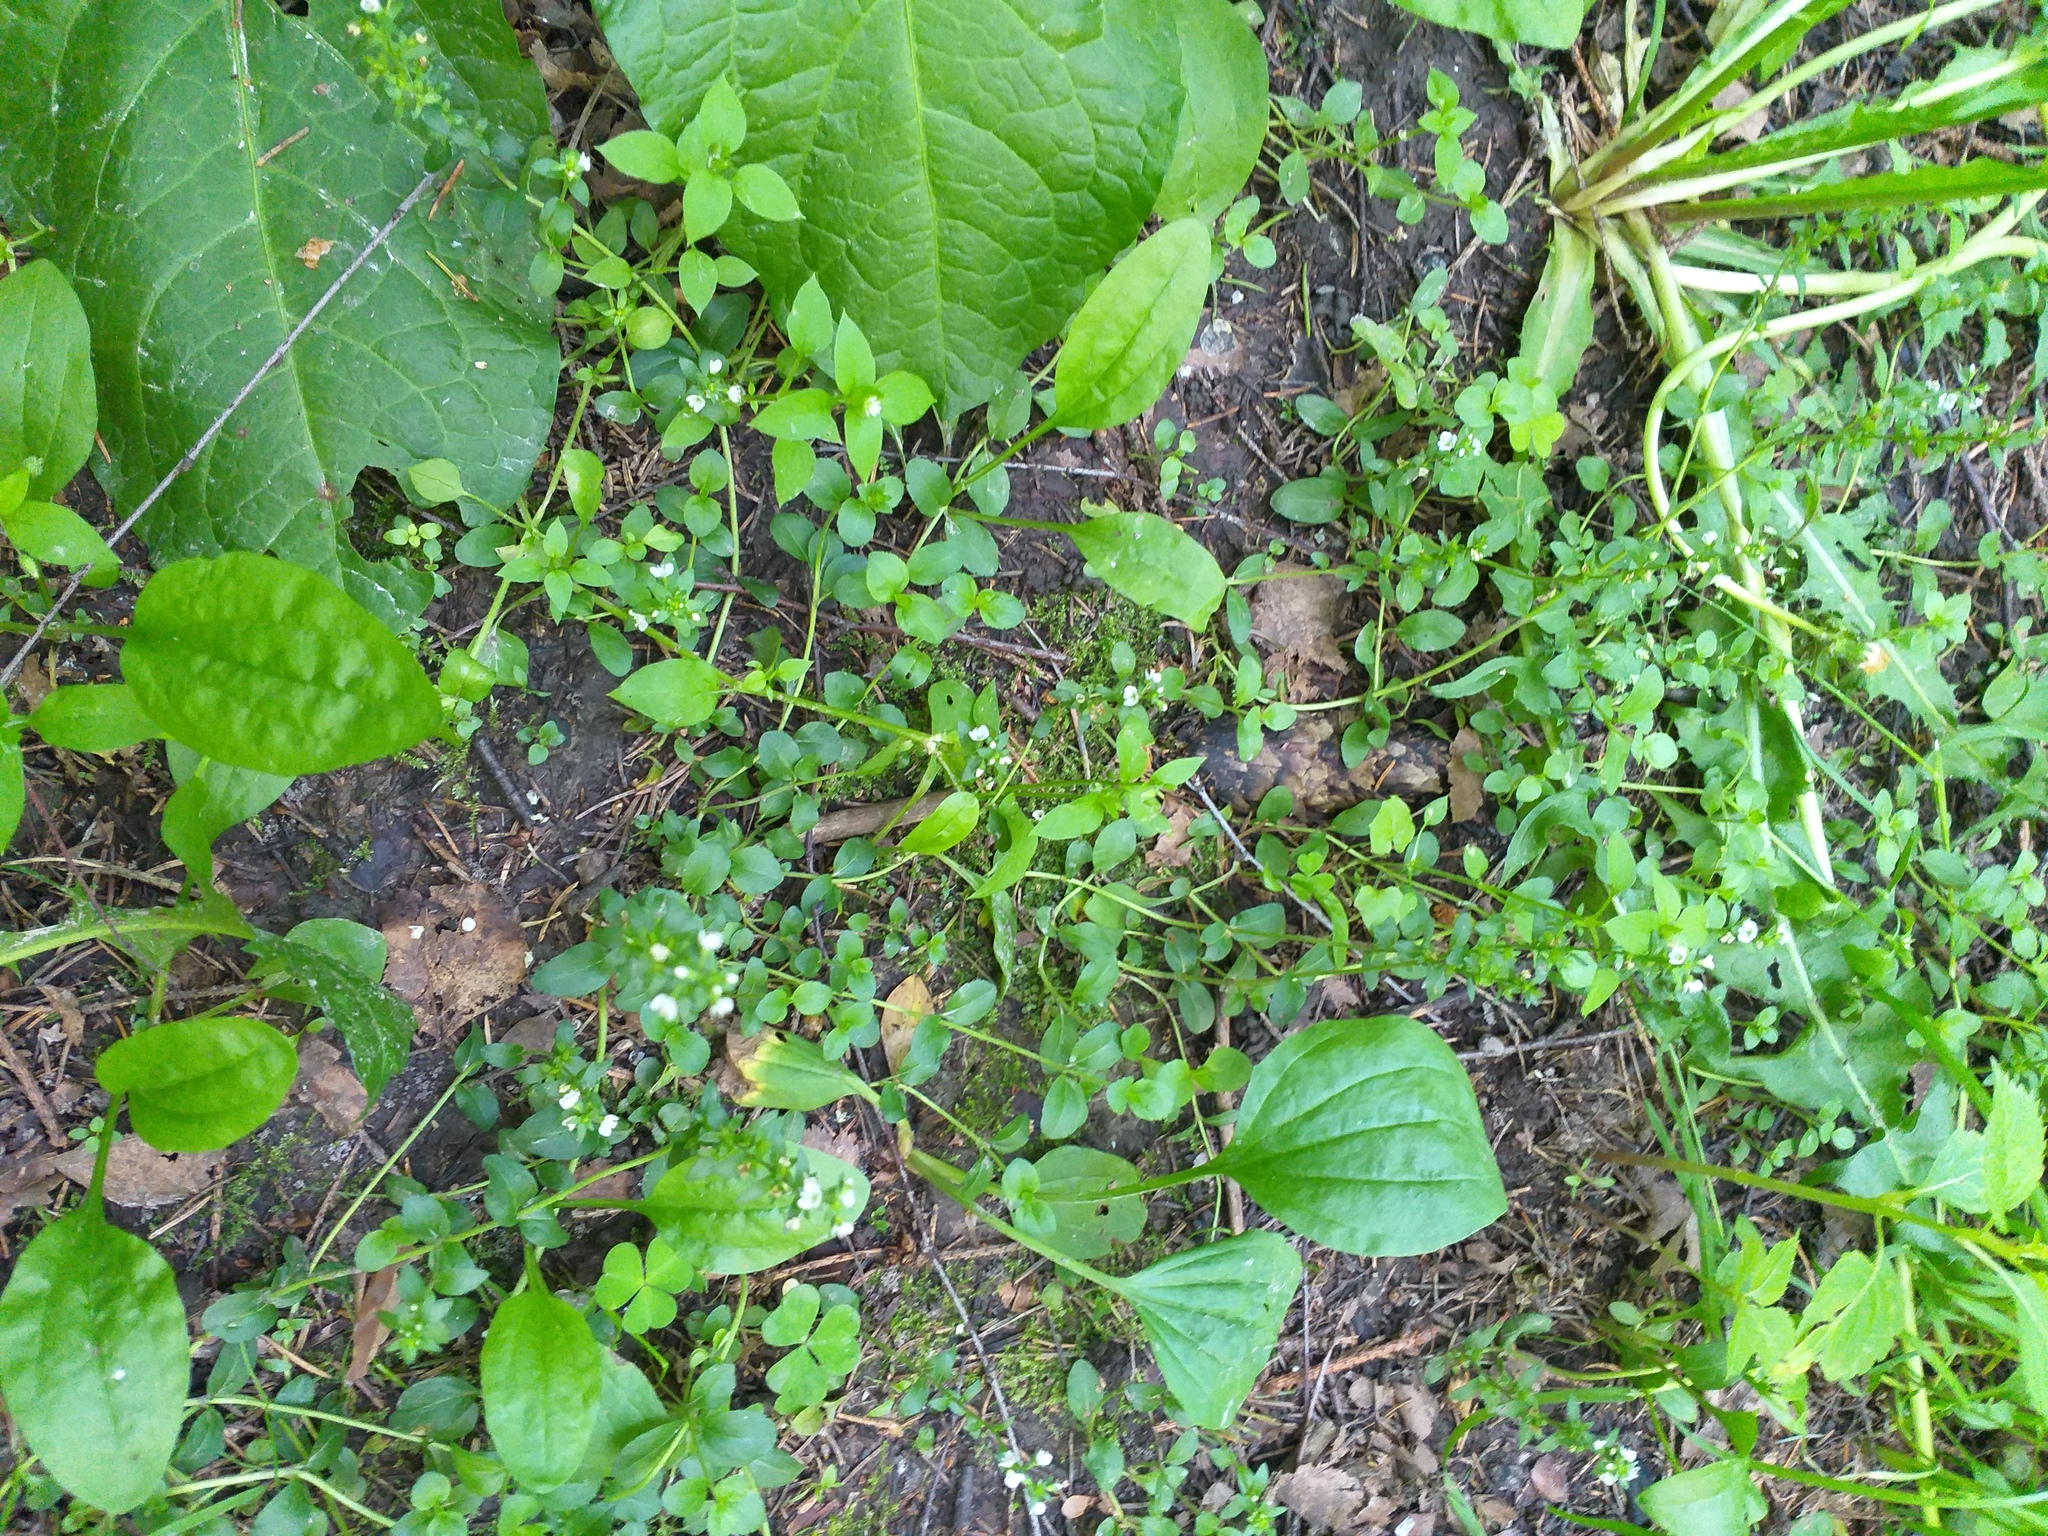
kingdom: Plantae
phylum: Tracheophyta
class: Magnoliopsida
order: Lamiales
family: Plantaginaceae
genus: Veronica
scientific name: Veronica serpyllifolia
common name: Thyme-leaved speedwell
